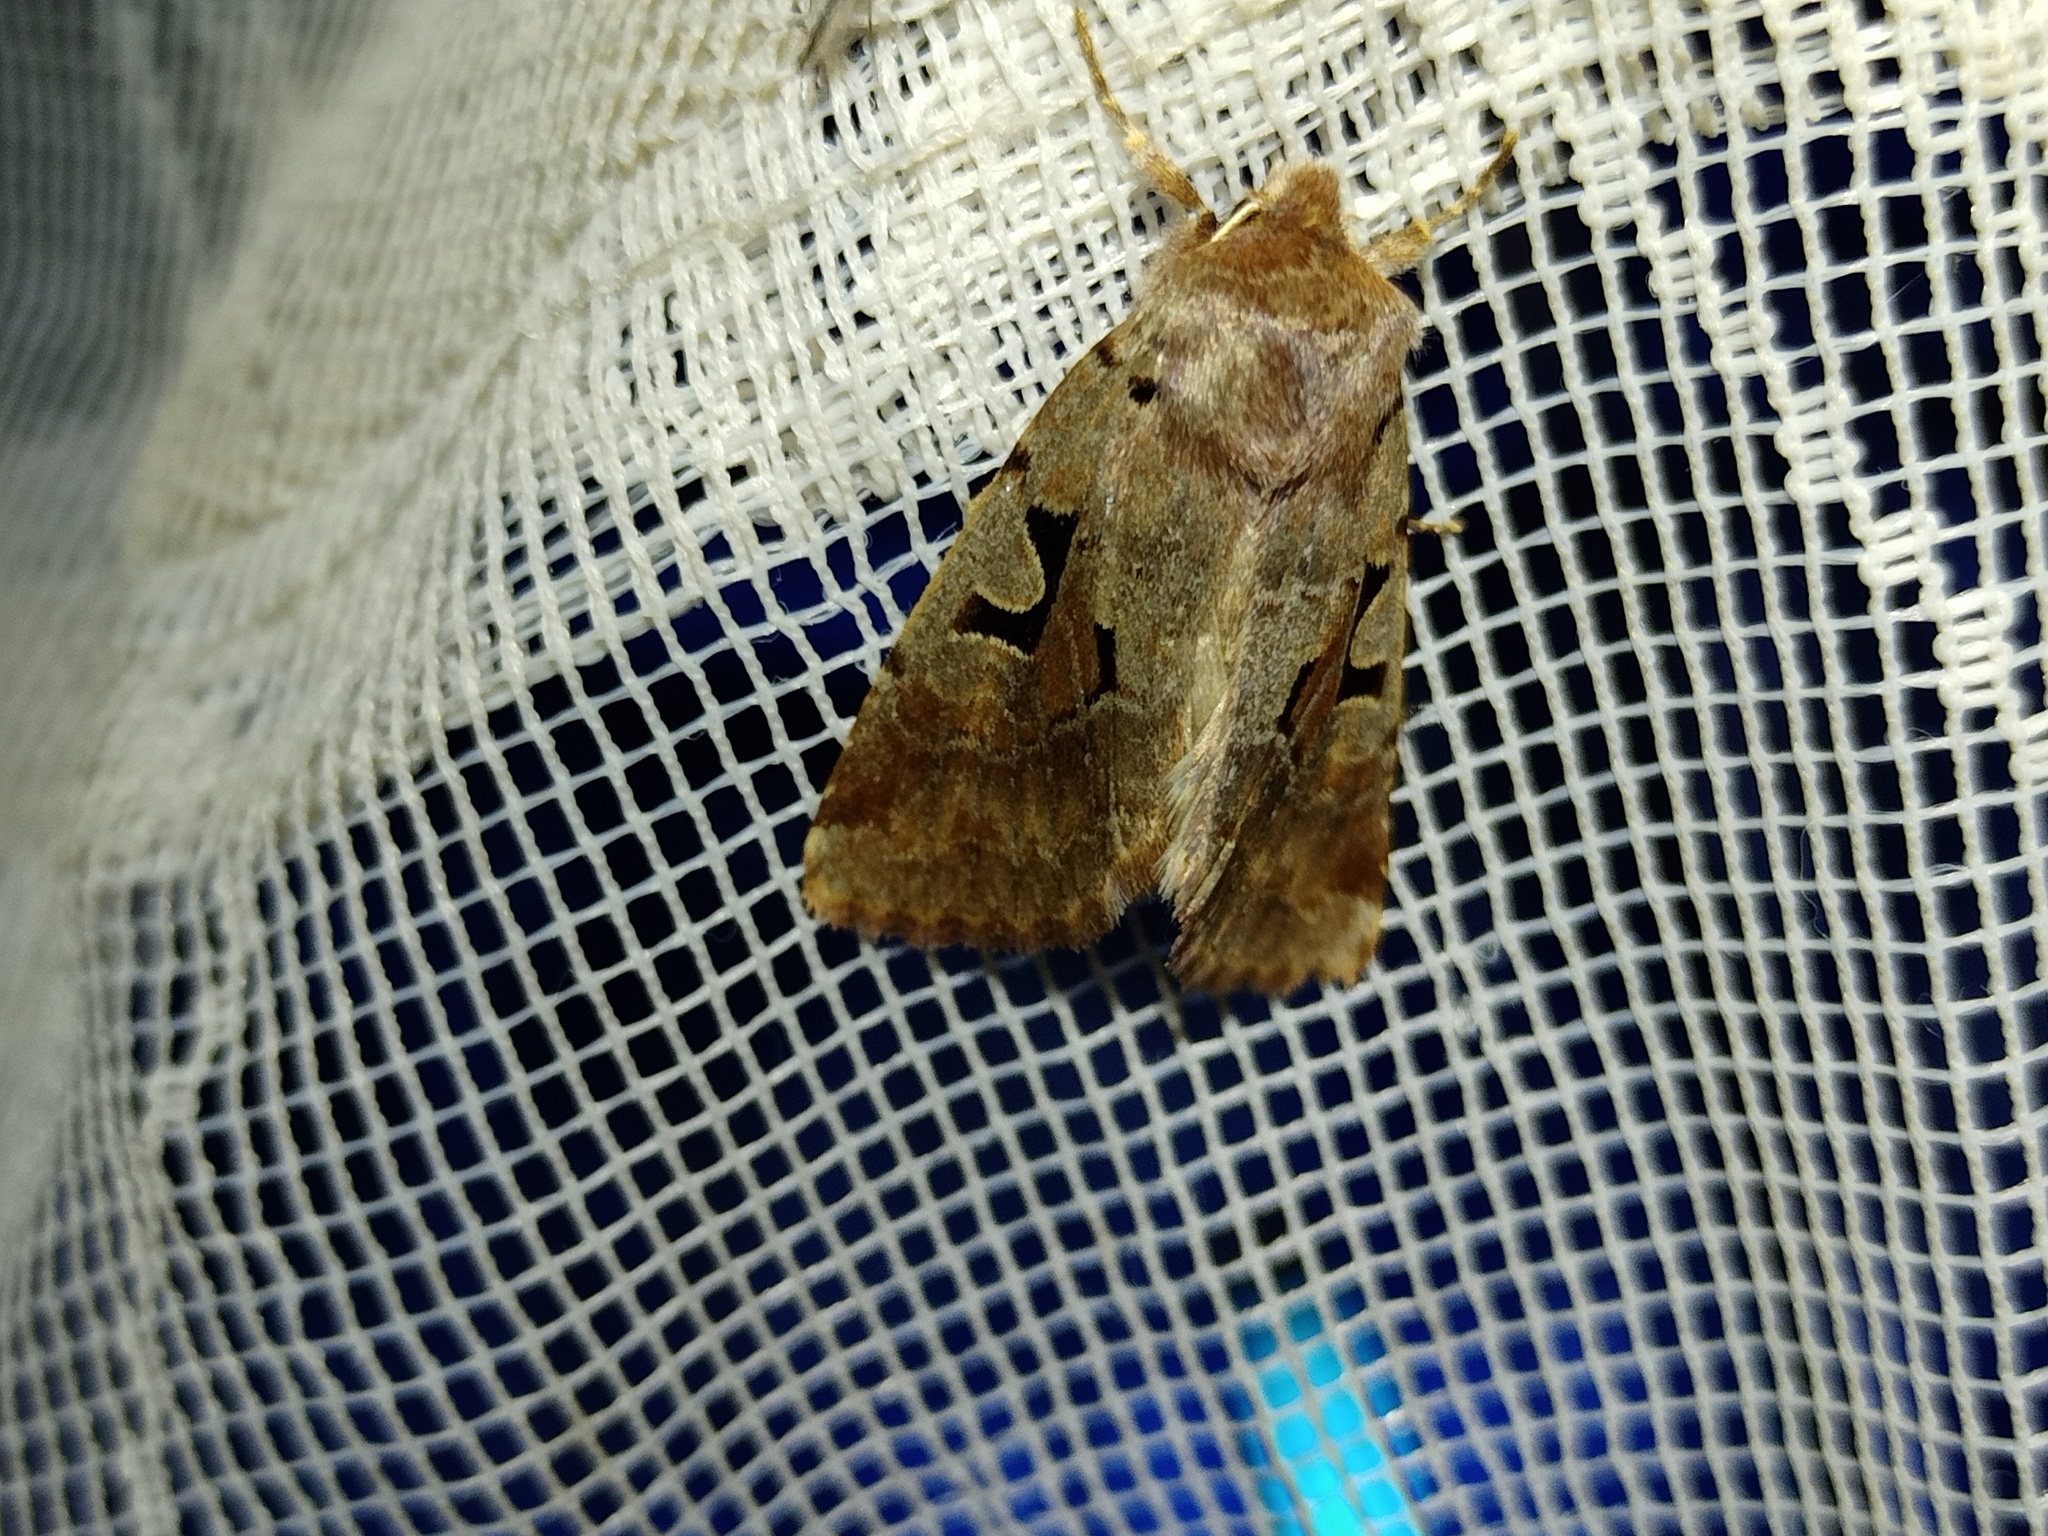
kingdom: Animalia
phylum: Arthropoda
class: Insecta
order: Lepidoptera
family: Noctuidae
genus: Orthosia
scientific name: Orthosia gothica
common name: Hebrew character
